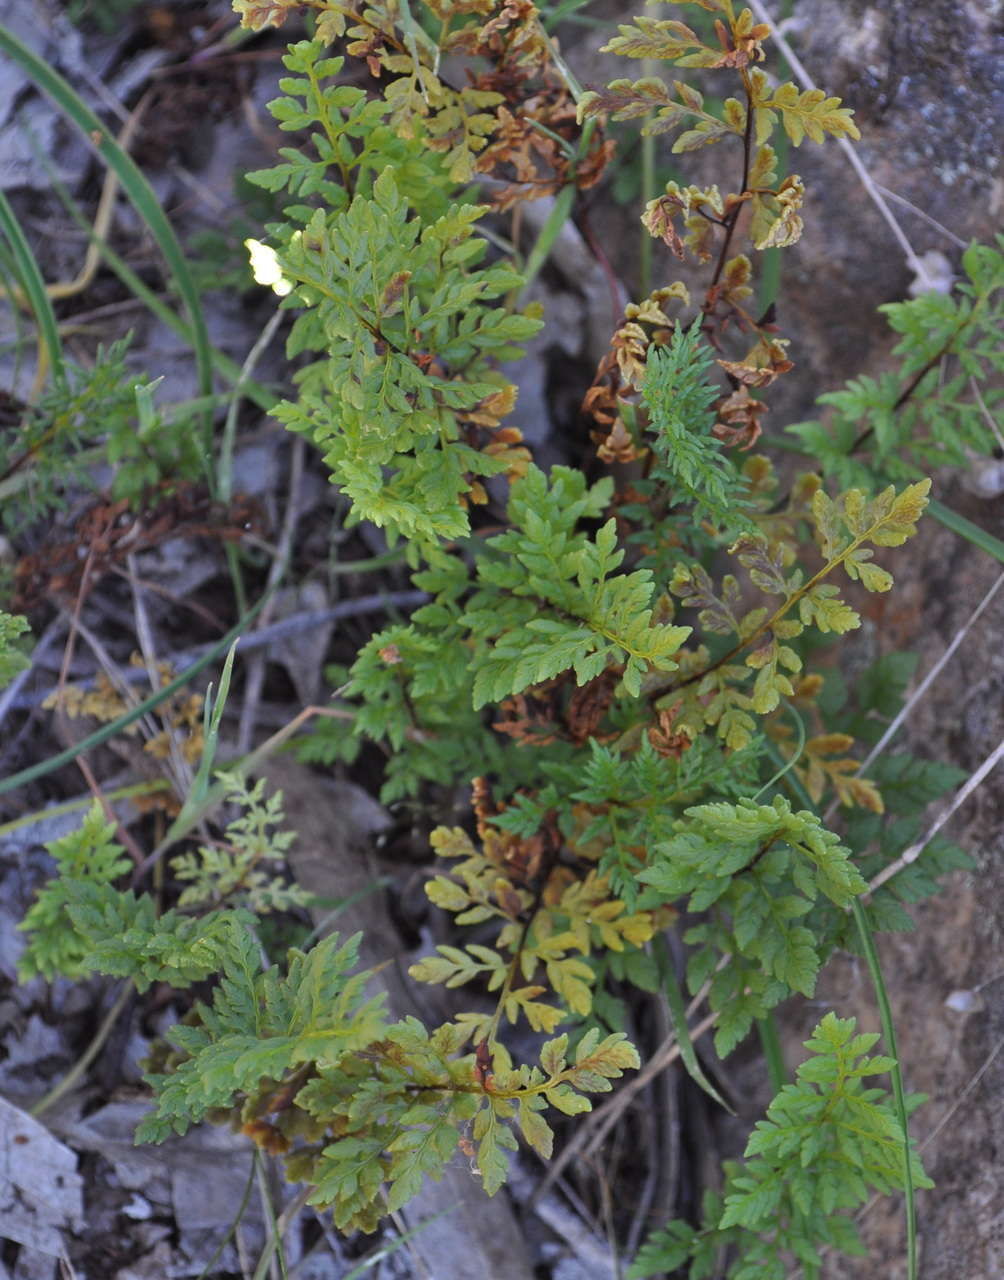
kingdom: Plantae
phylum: Tracheophyta
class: Polypodiopsida
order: Polypodiales
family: Pteridaceae
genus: Cheilanthes
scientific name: Cheilanthes austrotenuifolia
